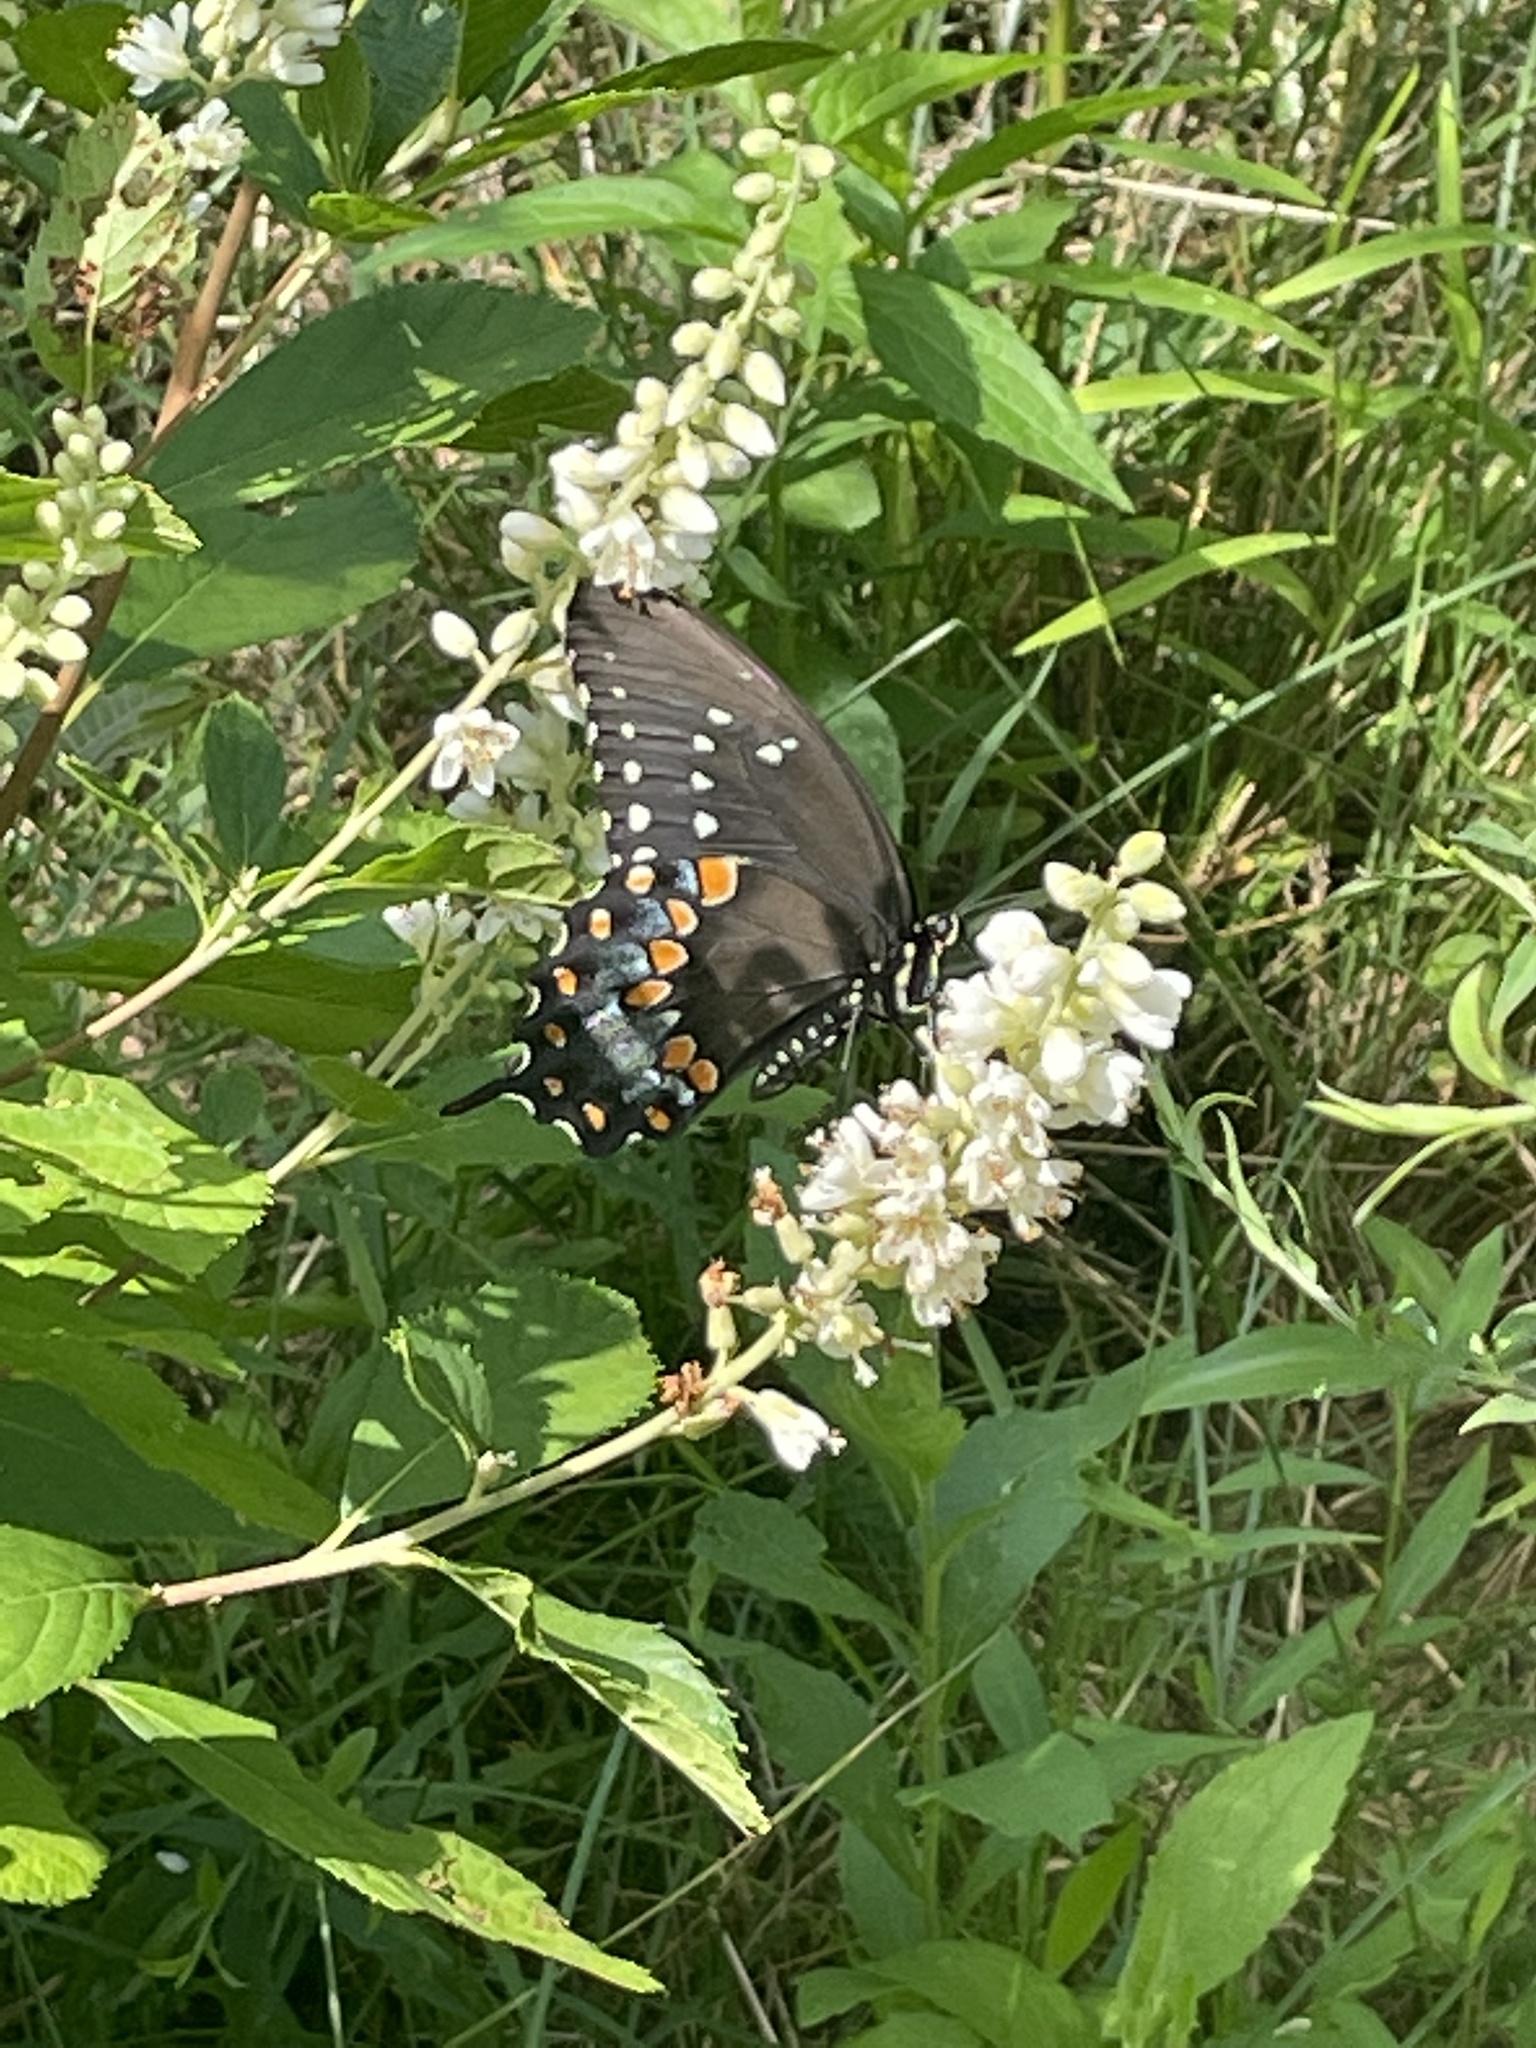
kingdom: Animalia
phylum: Arthropoda
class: Insecta
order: Lepidoptera
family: Papilionidae
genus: Papilio
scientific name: Papilio troilus
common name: Spicebush swallowtail
